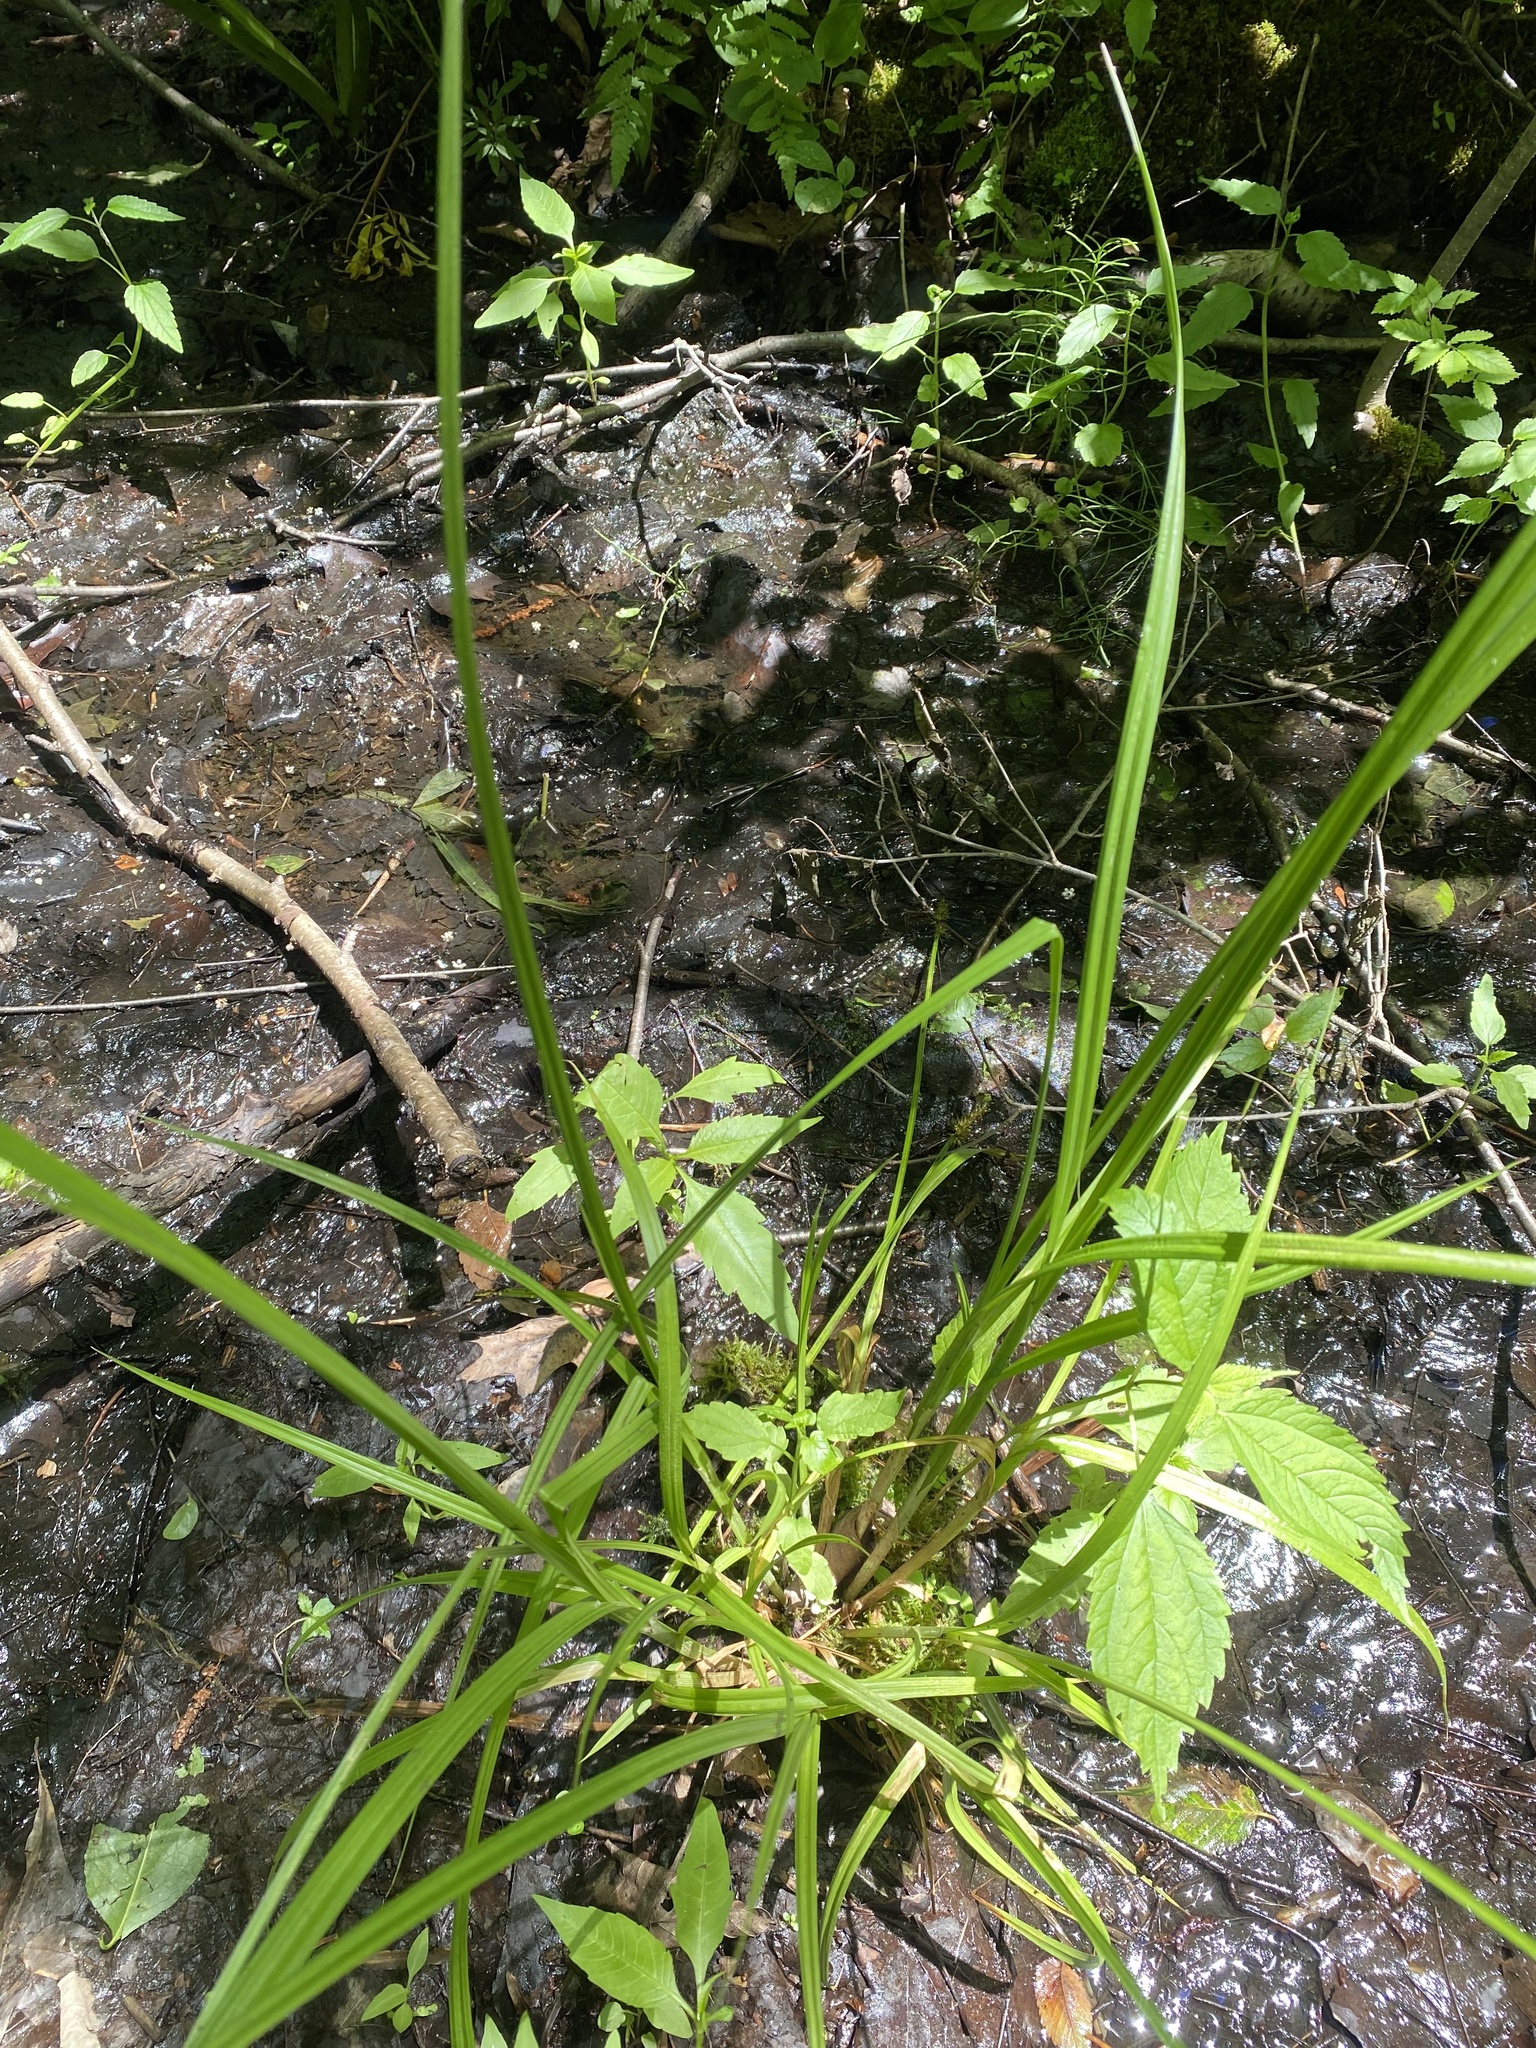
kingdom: Plantae
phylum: Tracheophyta
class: Liliopsida
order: Poales
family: Cyperaceae
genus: Carex
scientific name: Carex stipata
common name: Awl-fruited sedge
